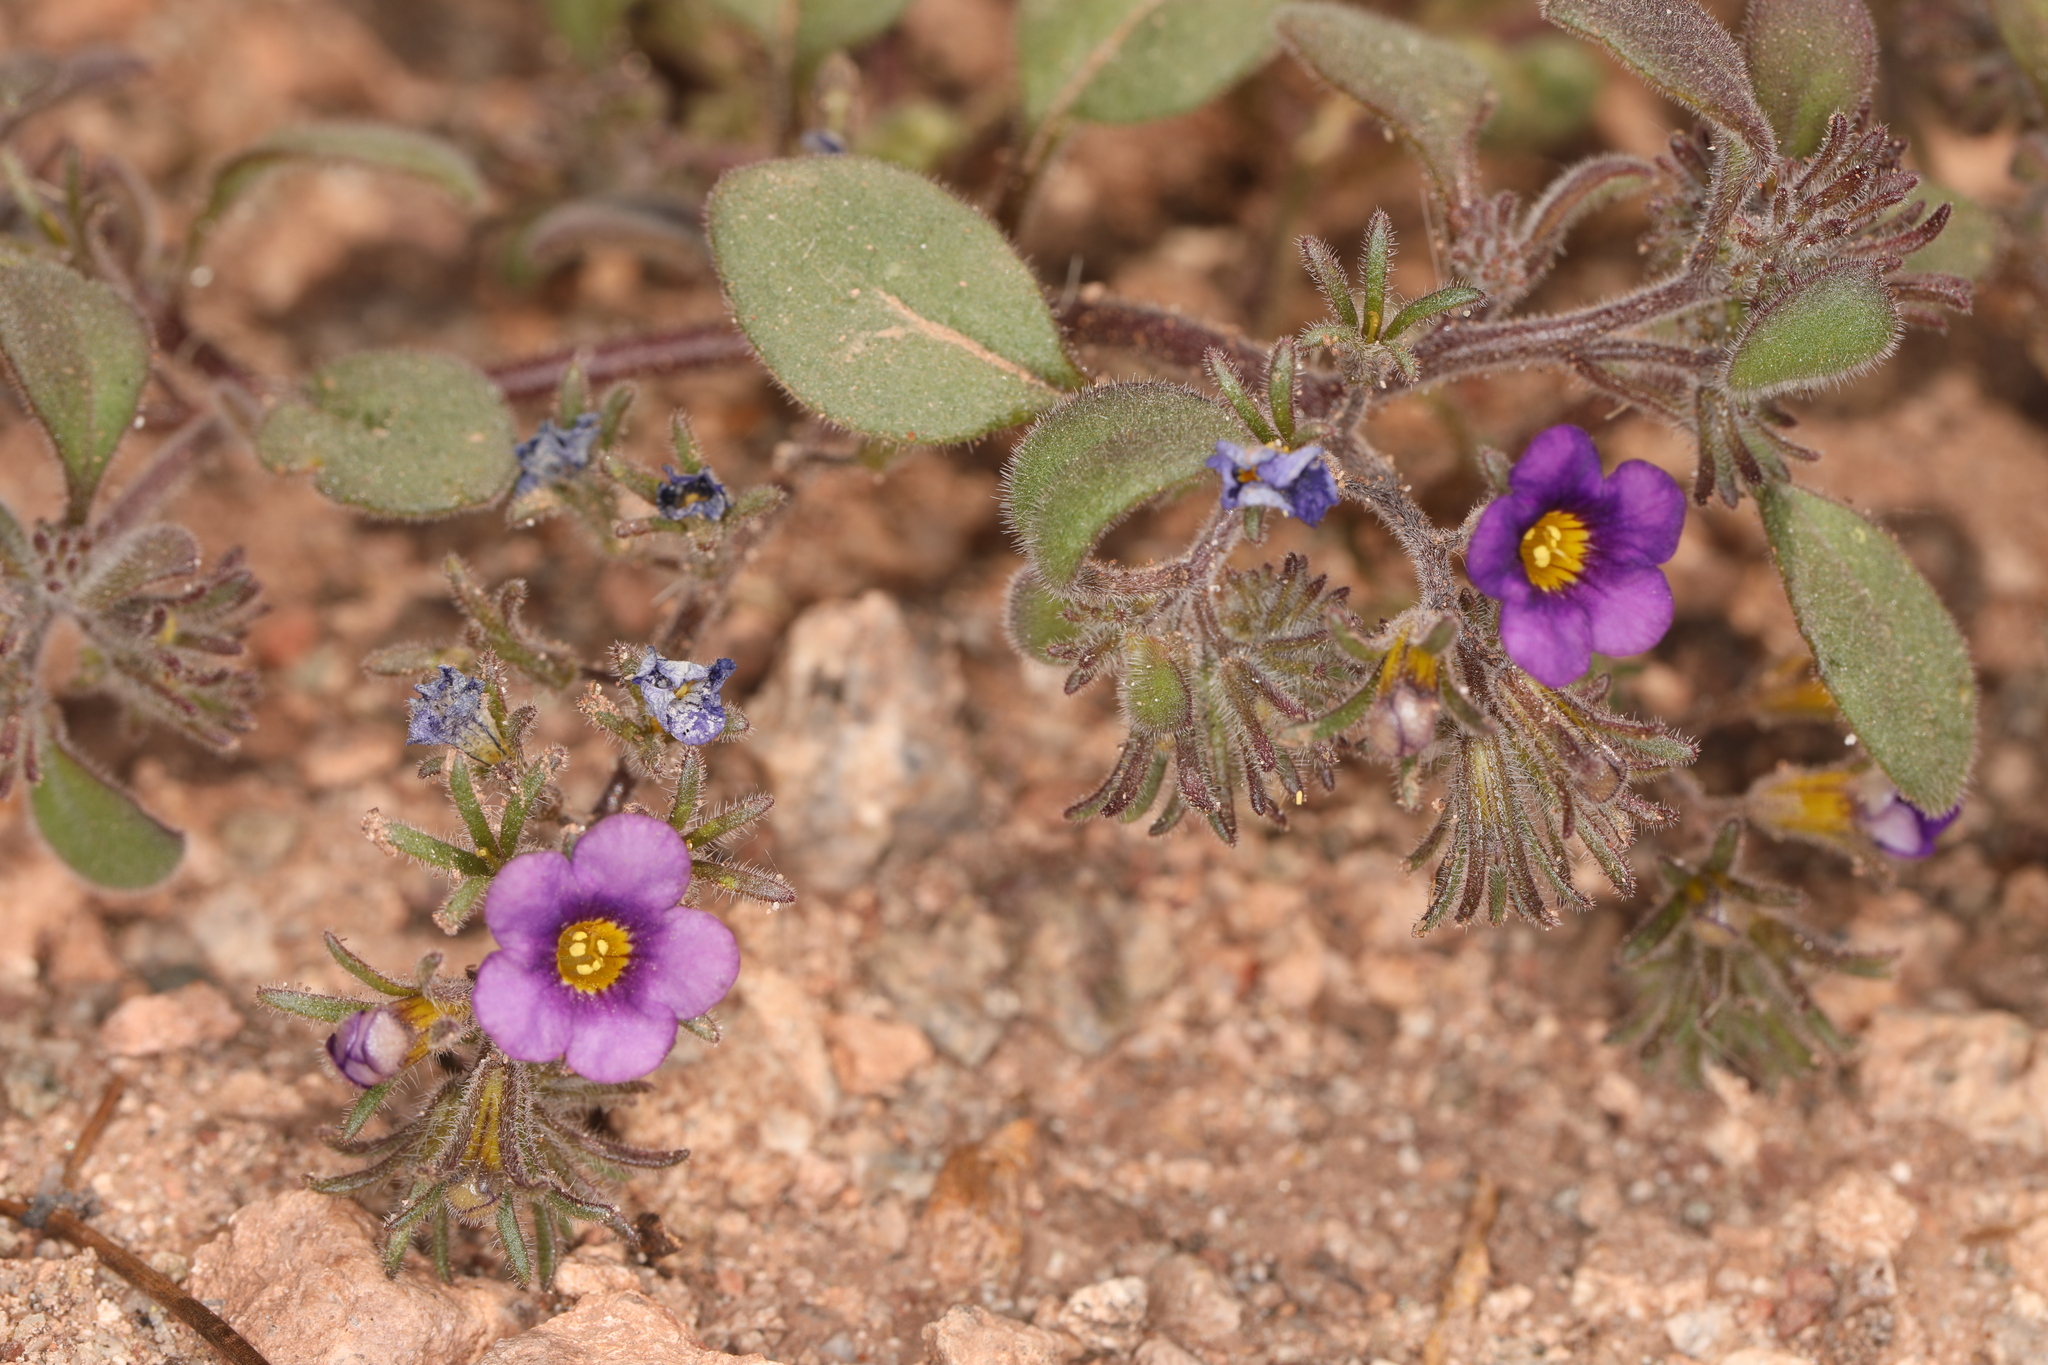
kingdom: Plantae
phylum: Tracheophyta
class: Magnoliopsida
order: Boraginales
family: Hydrophyllaceae
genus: Phacelia
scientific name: Phacelia gymnoclada
